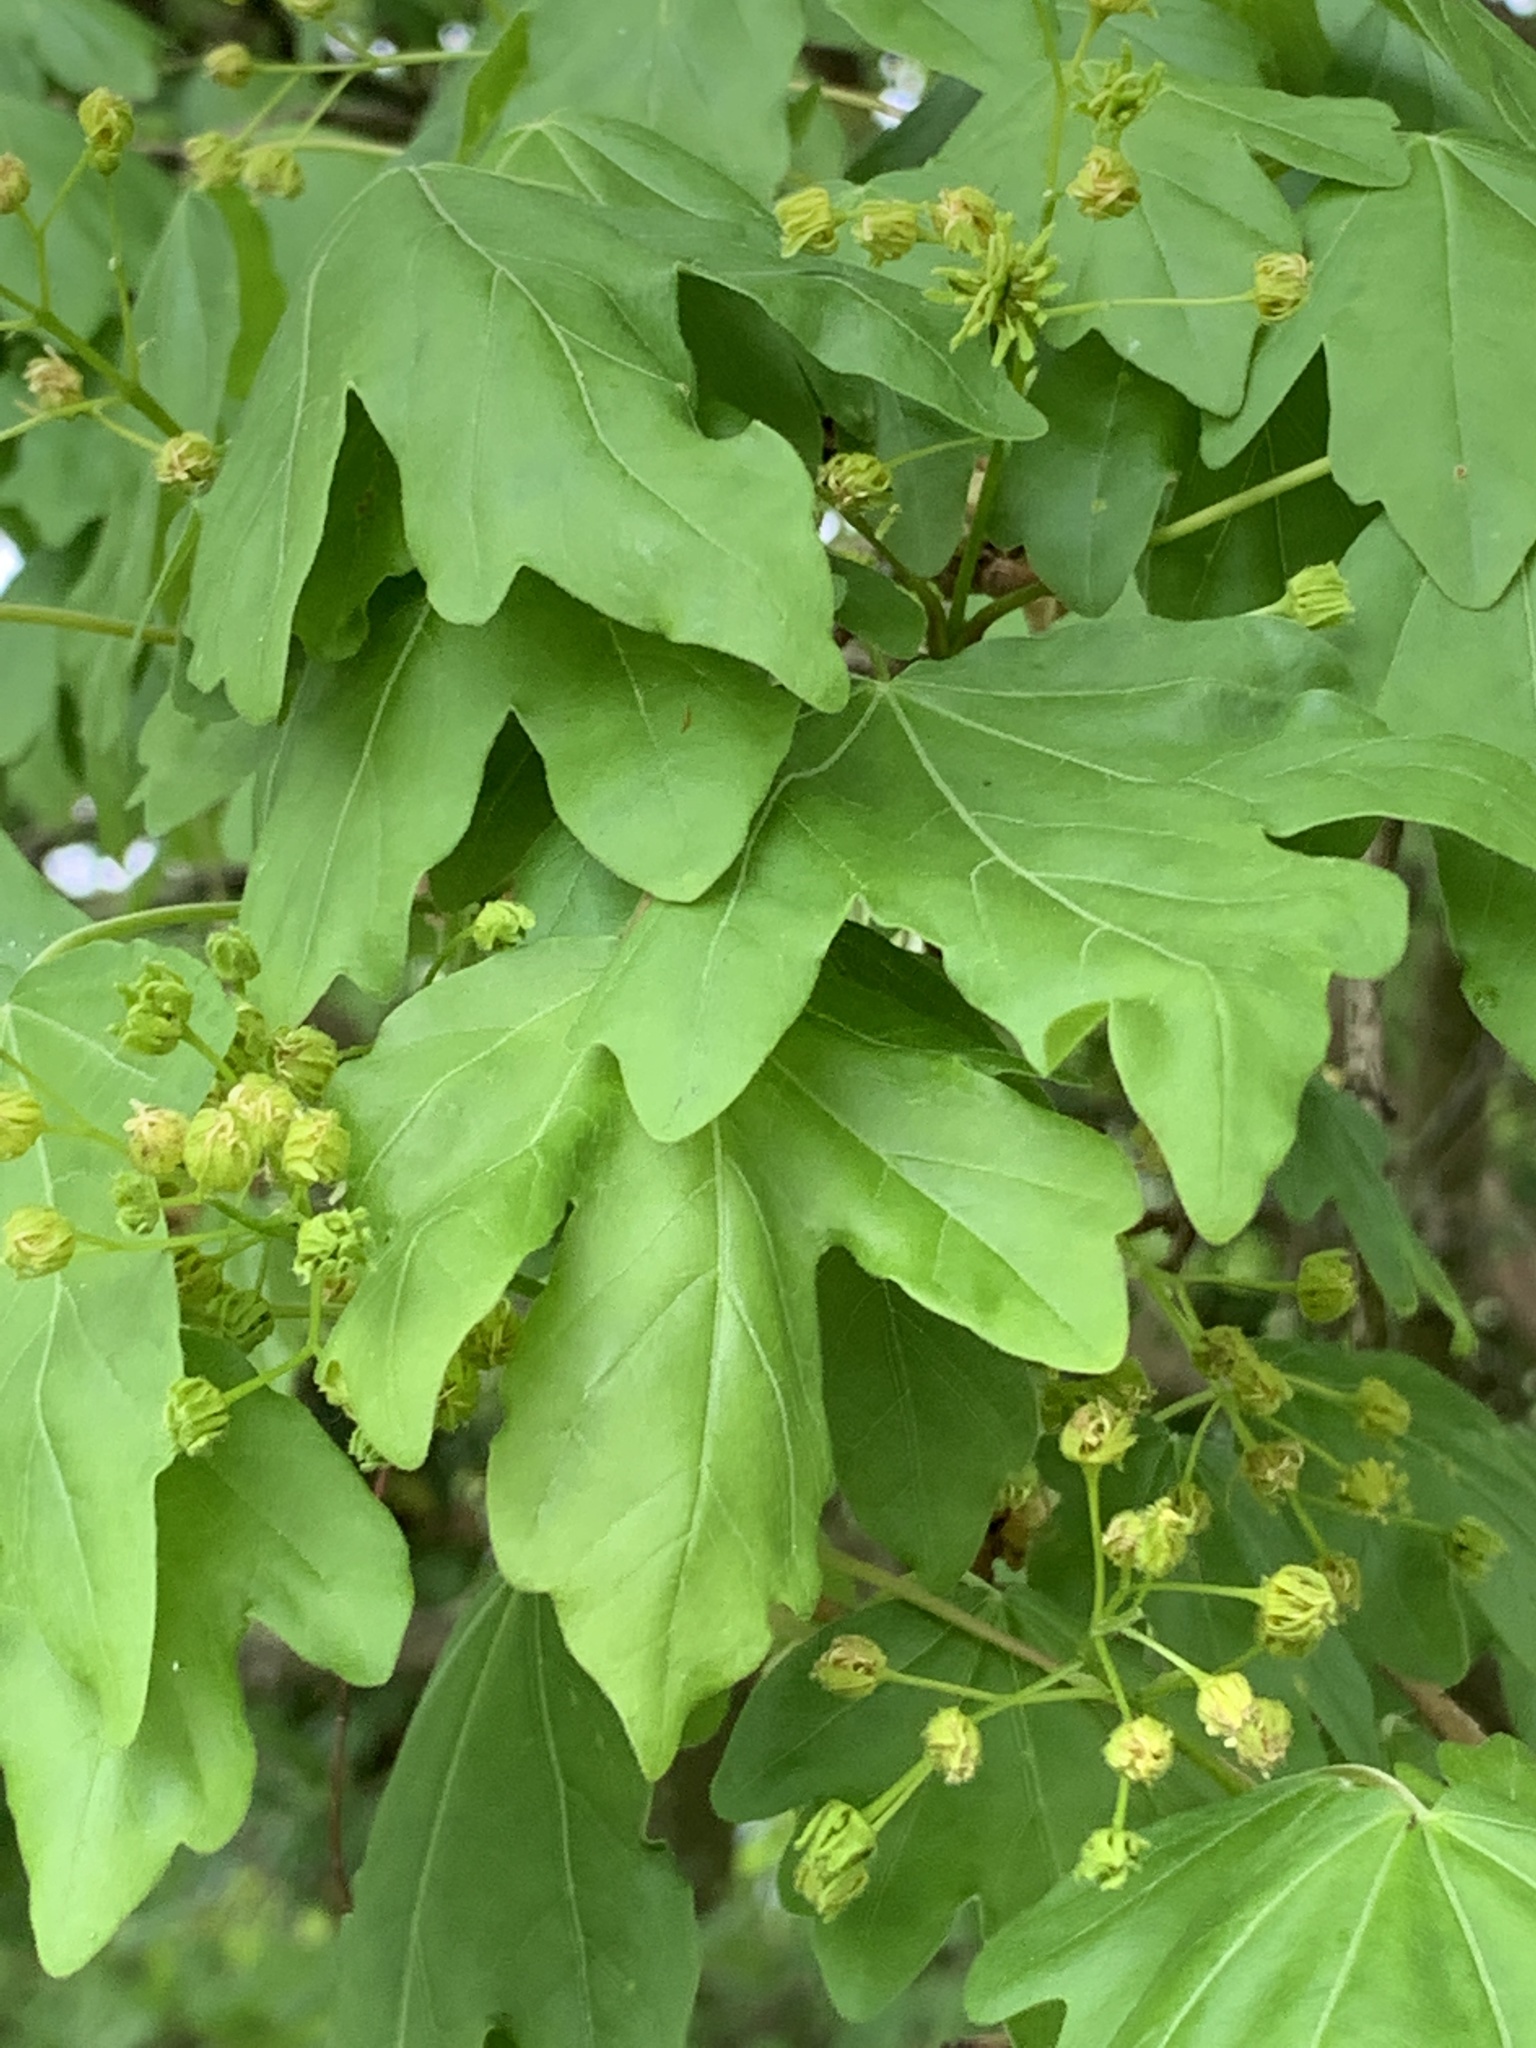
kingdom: Plantae
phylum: Tracheophyta
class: Magnoliopsida
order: Sapindales
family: Sapindaceae
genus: Acer
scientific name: Acer campestre
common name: Field maple
